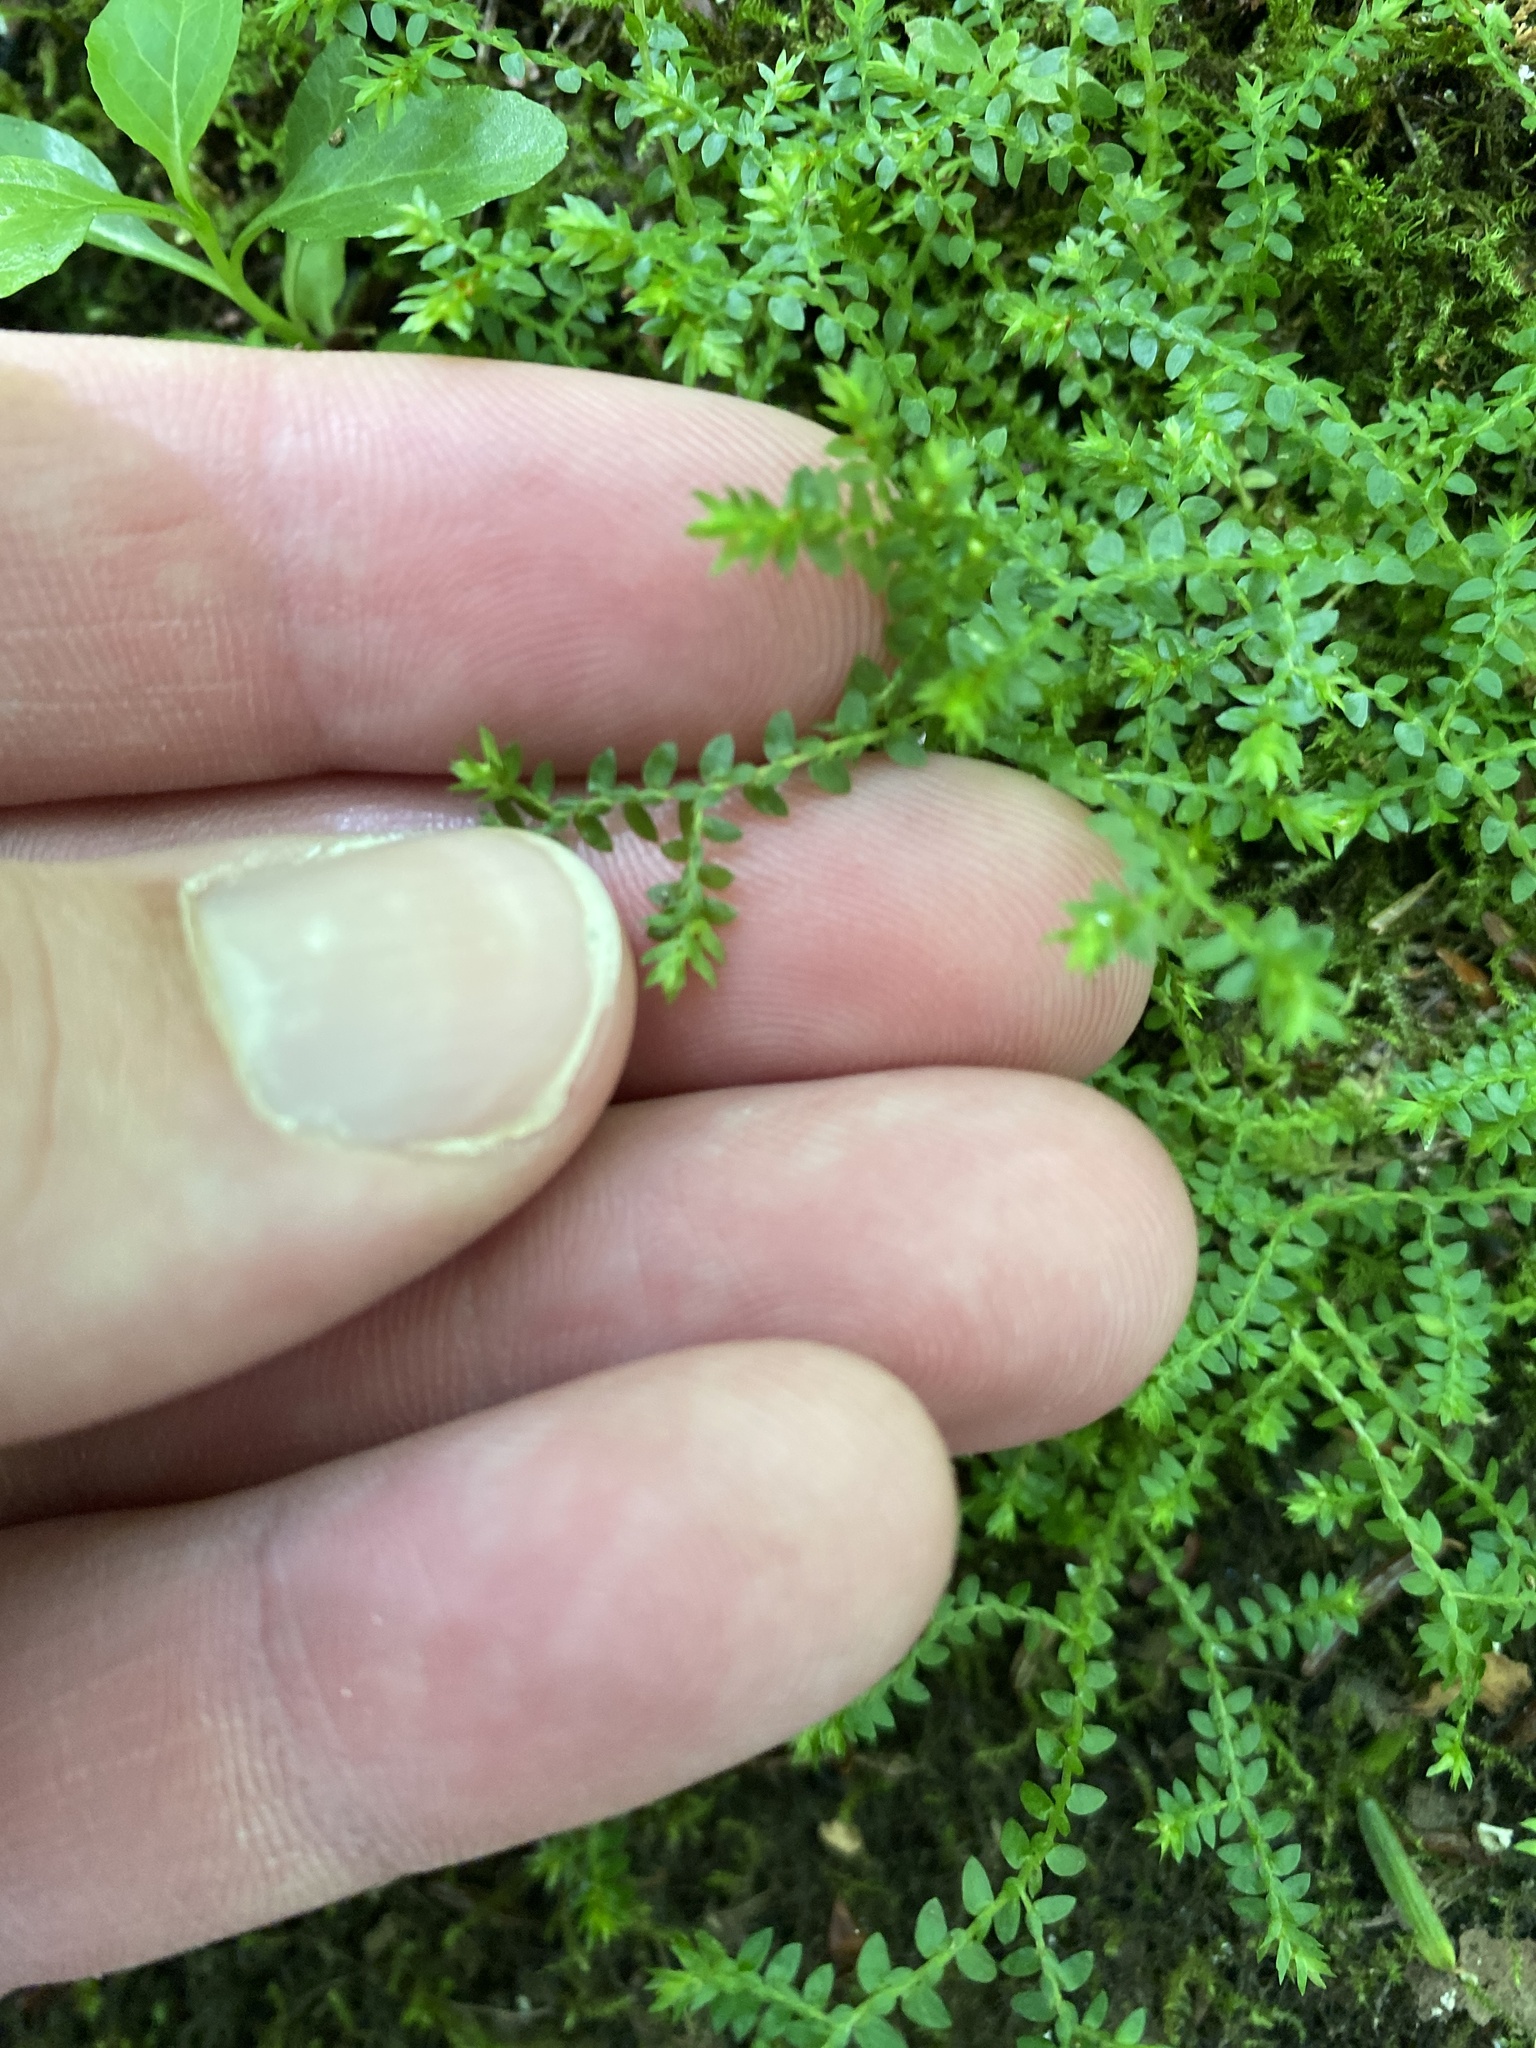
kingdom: Plantae
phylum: Tracheophyta
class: Lycopodiopsida
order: Selaginellales
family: Selaginellaceae
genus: Selaginella
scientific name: Selaginella apoda
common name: Creeping spikemoss
